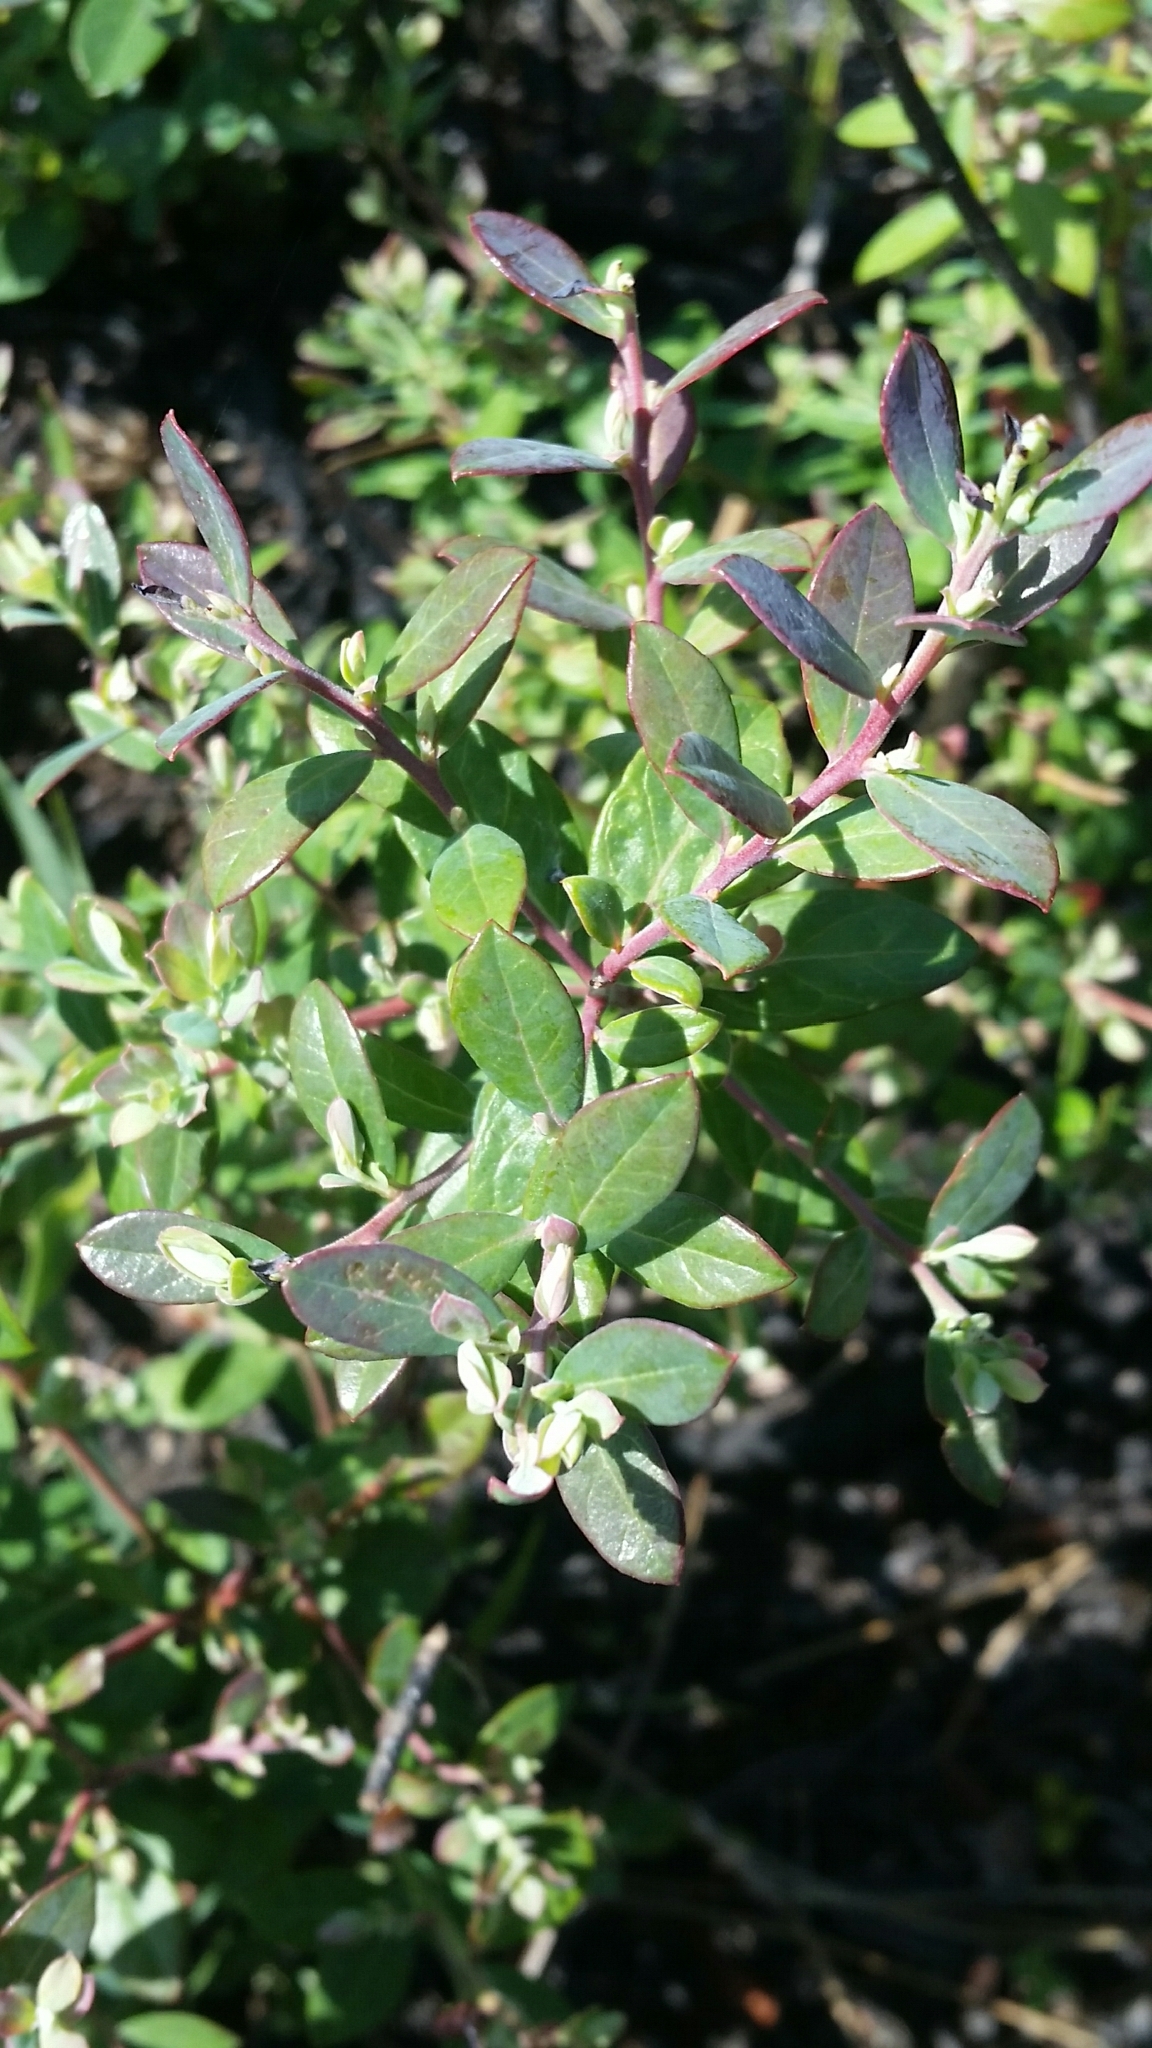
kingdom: Plantae
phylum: Tracheophyta
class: Magnoliopsida
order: Ericales
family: Ericaceae
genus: Vaccinium
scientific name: Vaccinium darrowii
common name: Darrow's blueberry
